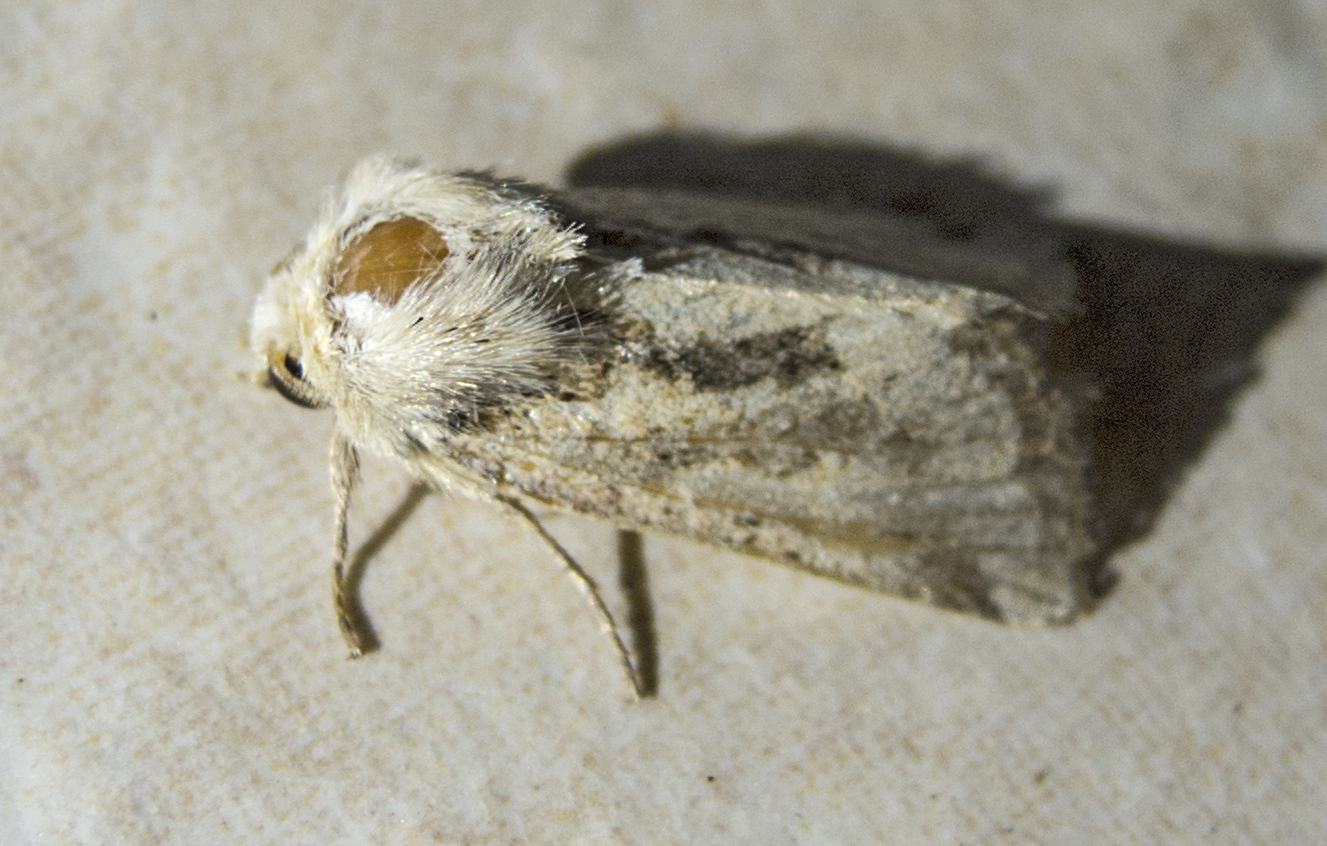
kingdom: Animalia
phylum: Arthropoda
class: Insecta
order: Lepidoptera
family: Noctuidae
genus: Luperina
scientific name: Luperina dumerilii
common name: Dumeril's rustic
